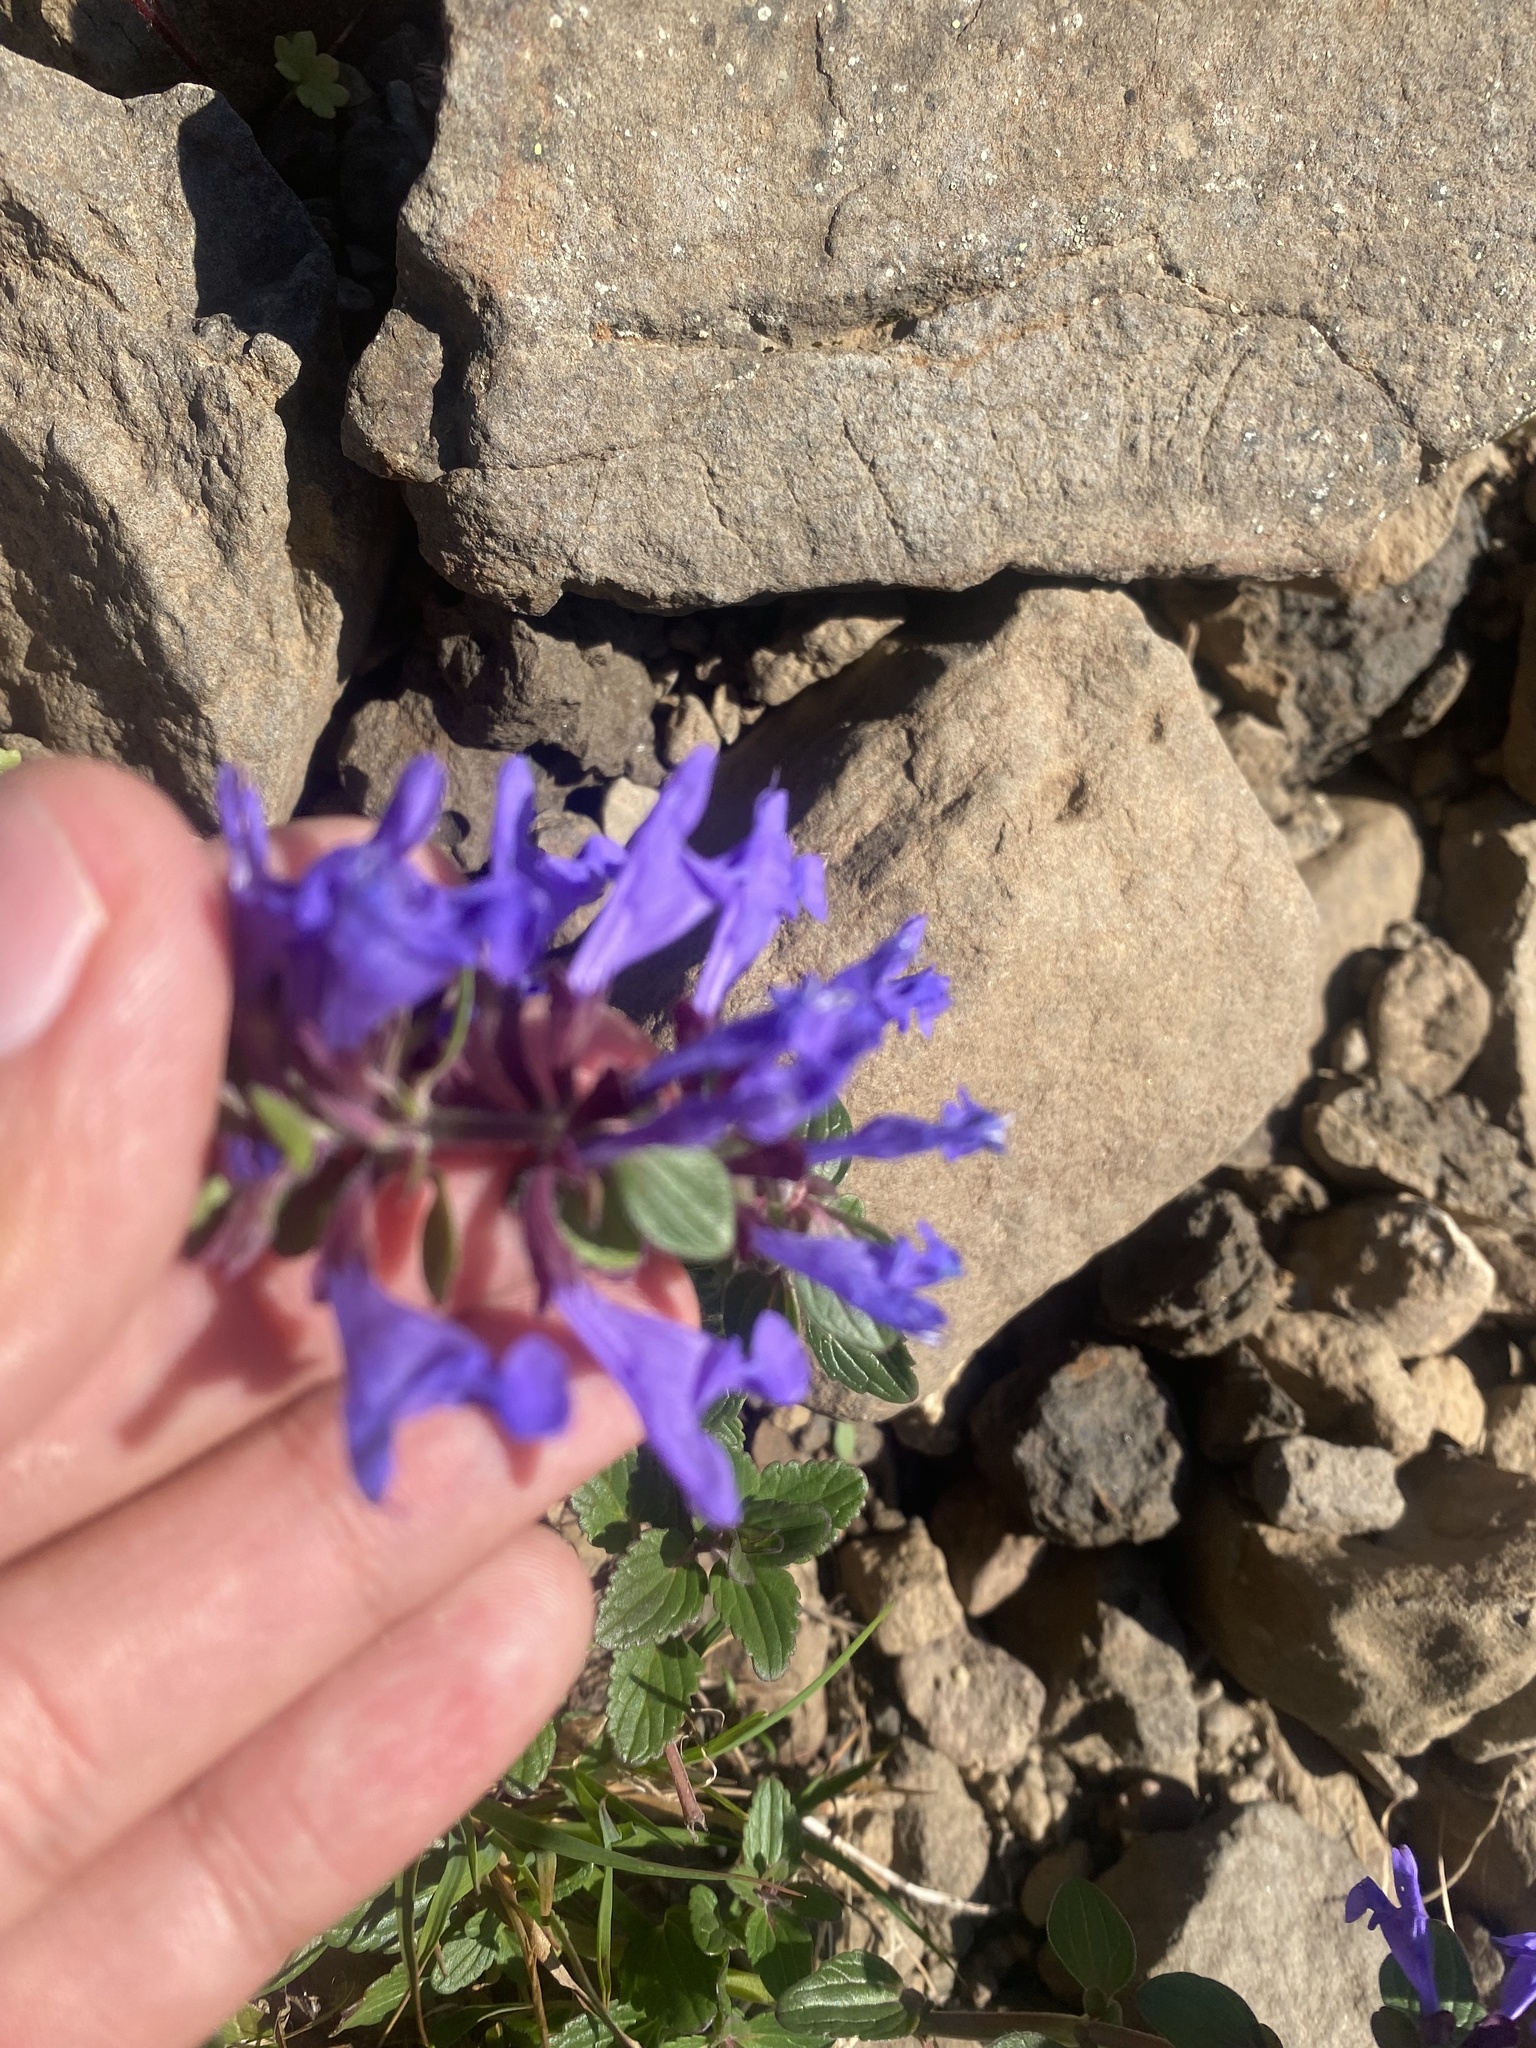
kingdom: Plantae
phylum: Tracheophyta
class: Magnoliopsida
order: Lamiales
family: Lamiaceae
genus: Dracocephalum
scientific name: Dracocephalum nutans
